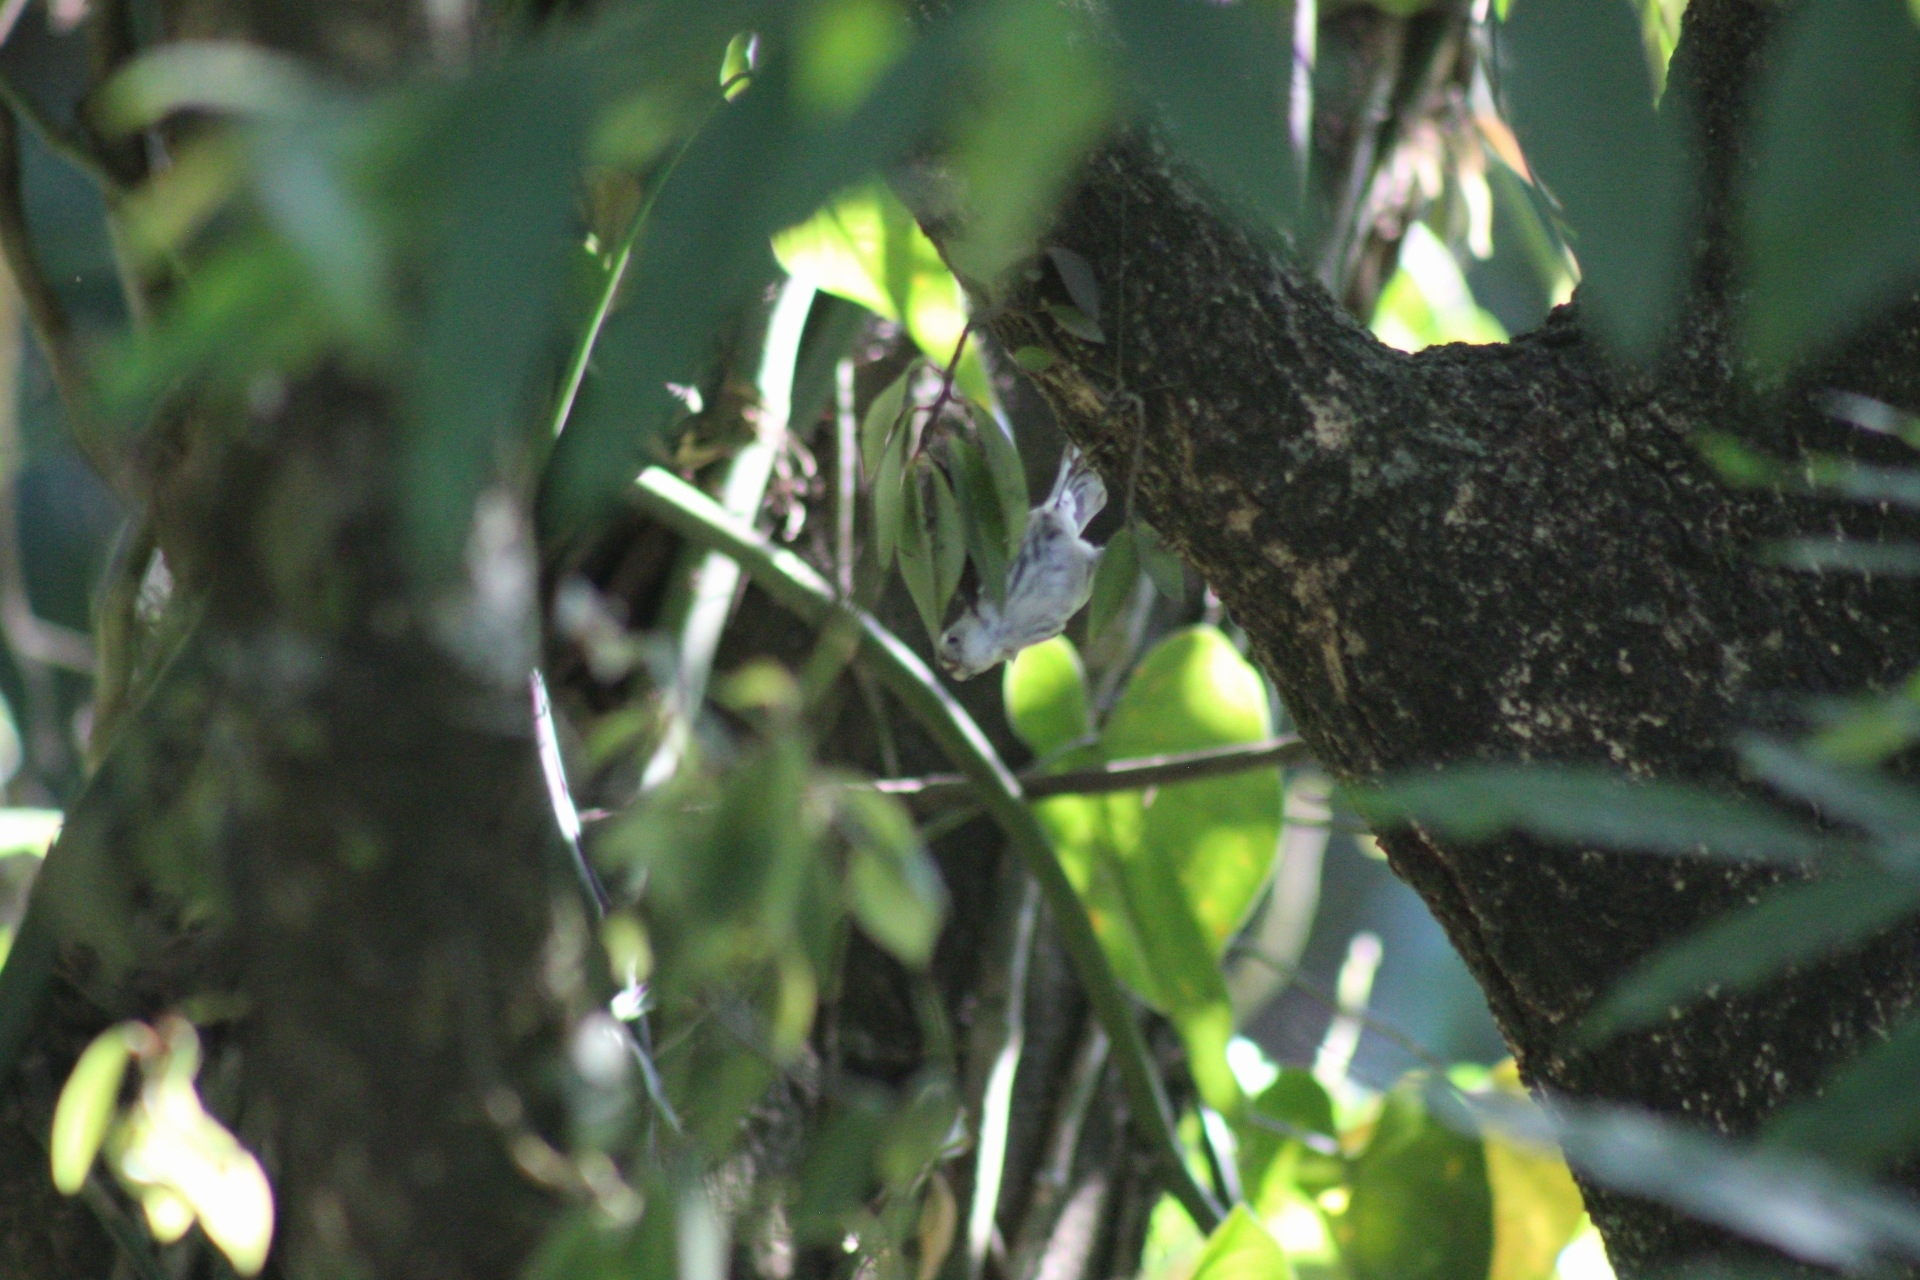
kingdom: Animalia
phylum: Chordata
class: Aves
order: Passeriformes
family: Parulidae
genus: Mniotilta
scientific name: Mniotilta varia
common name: Black-and-white warbler
